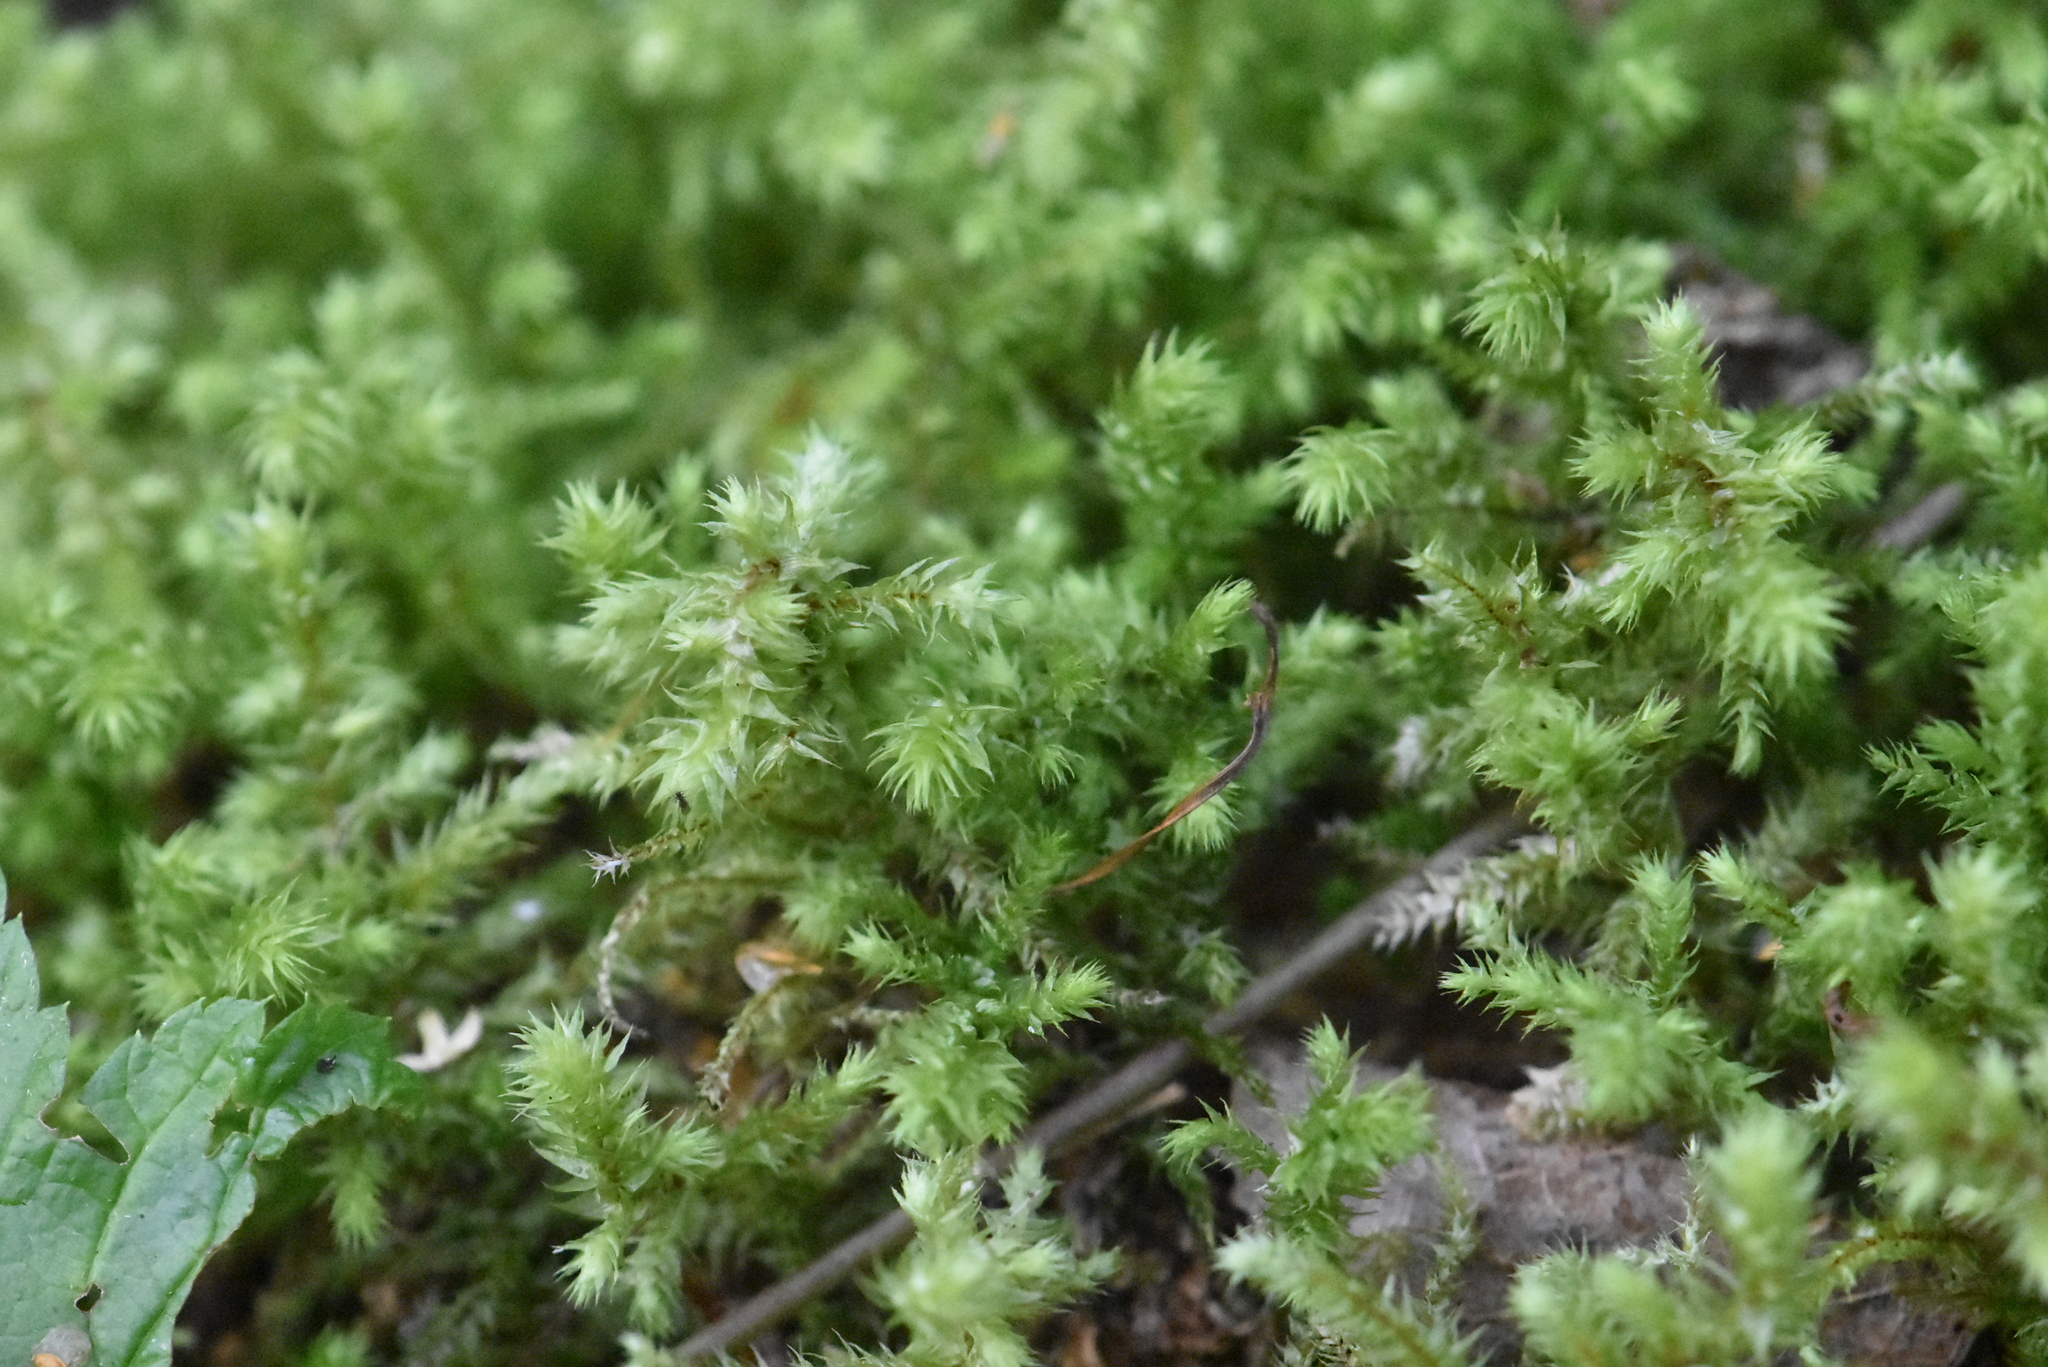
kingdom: Plantae
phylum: Bryophyta
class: Bryopsida
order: Hypnales
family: Hylocomiaceae
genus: Hylocomiadelphus
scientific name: Hylocomiadelphus triquetrus
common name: Rough goose neck moss
